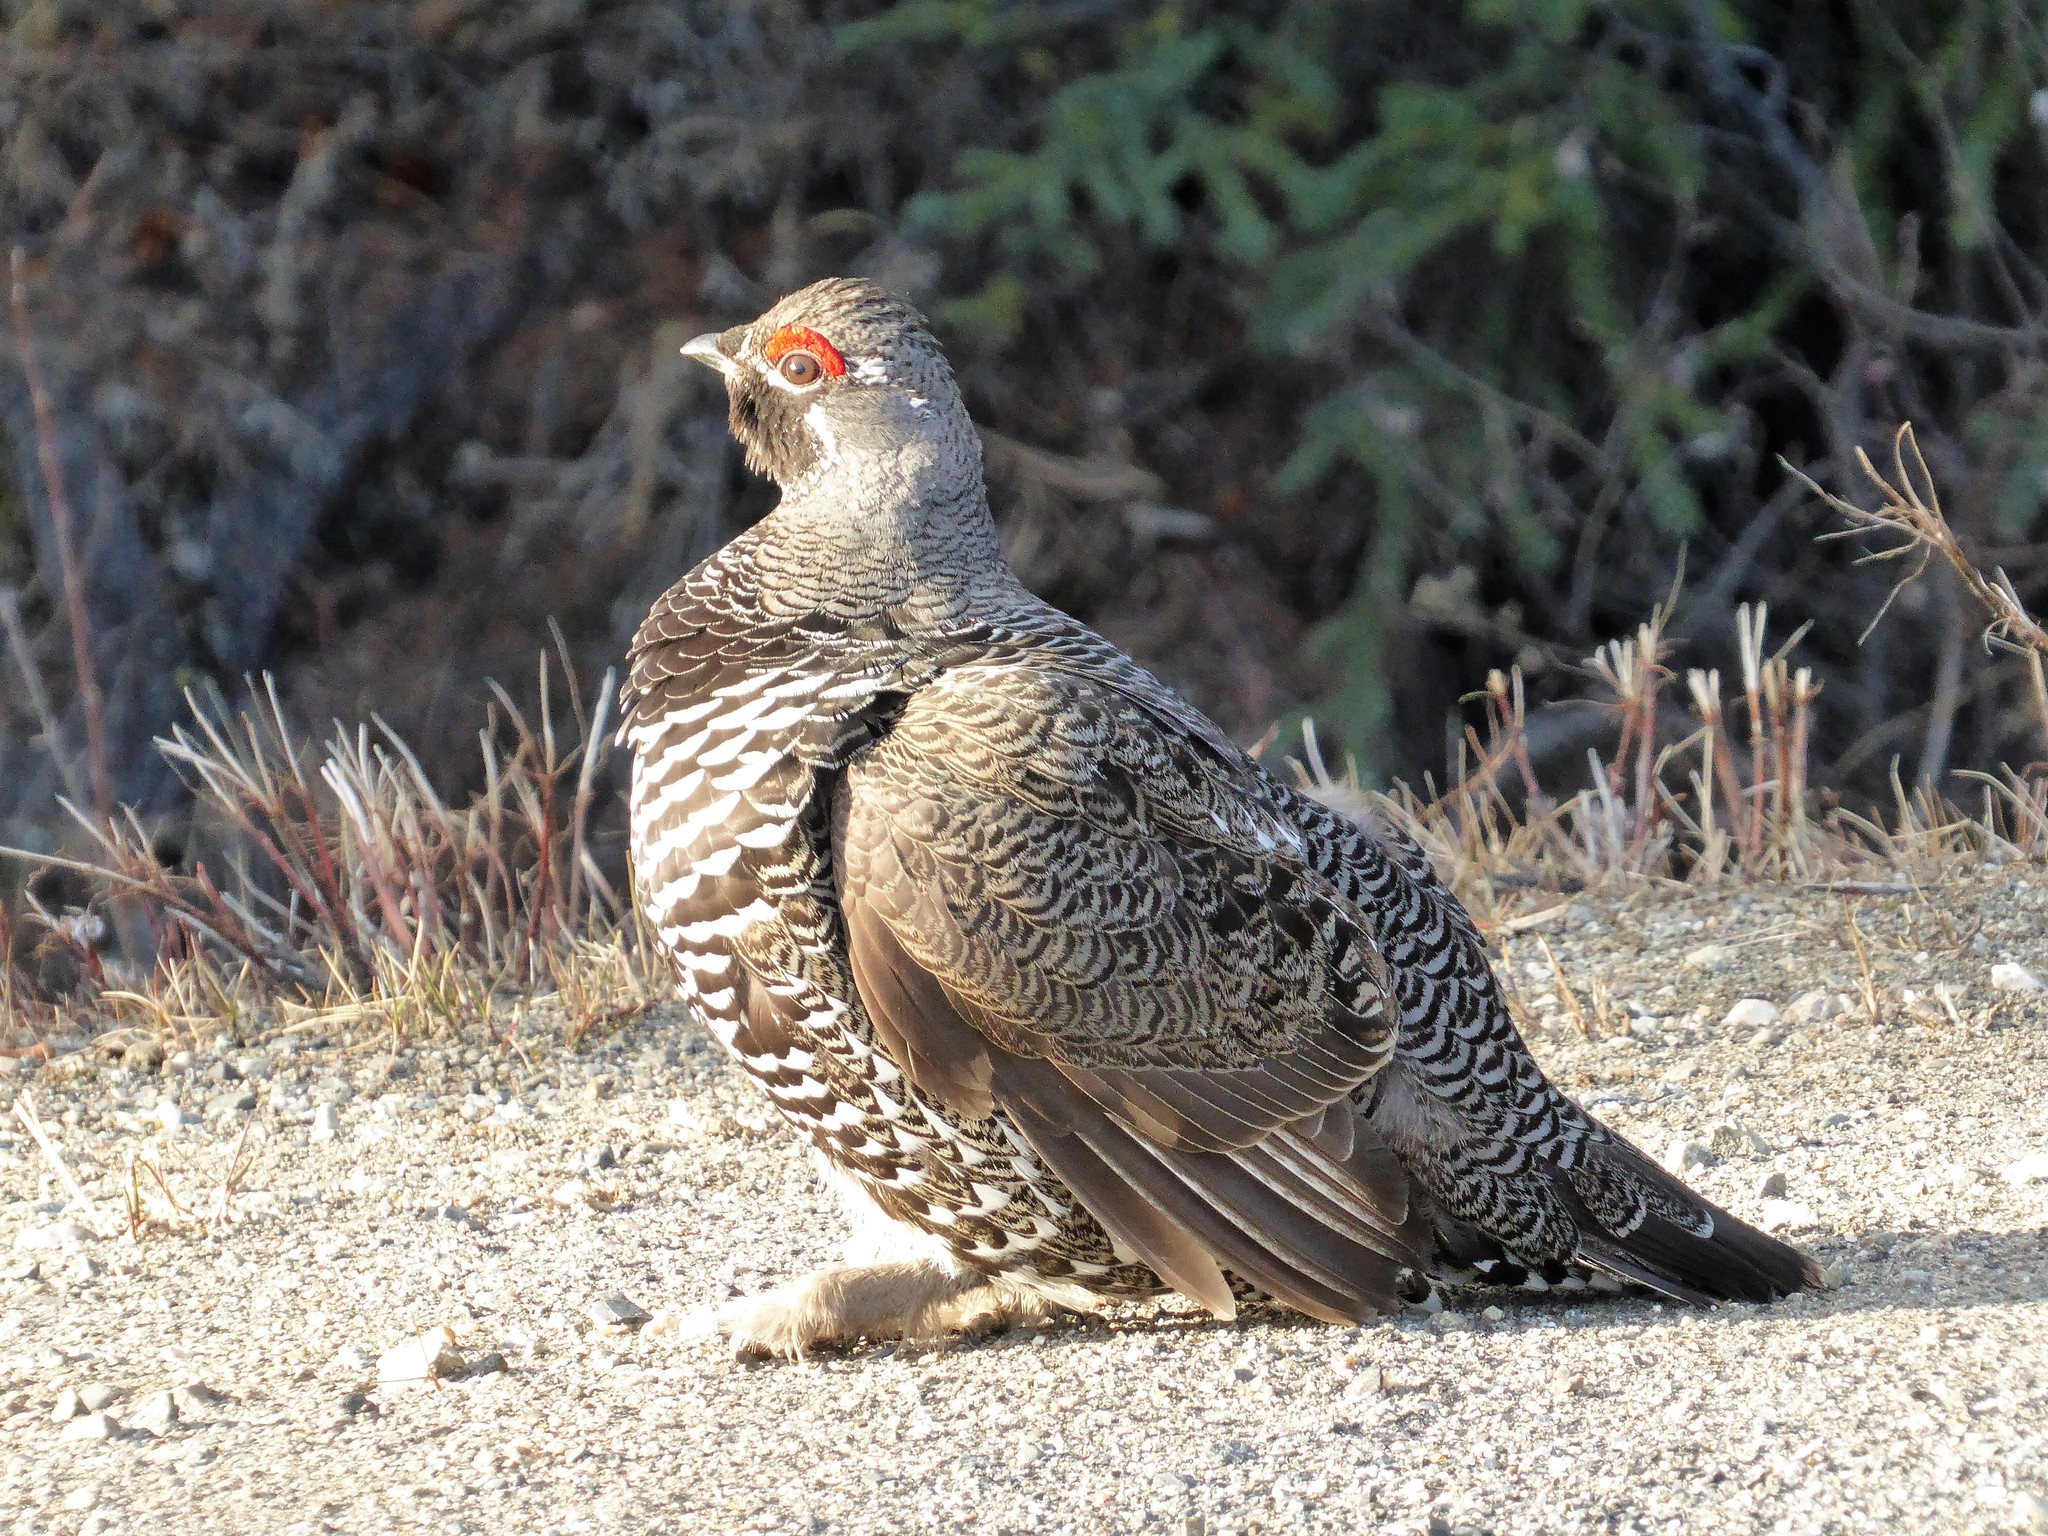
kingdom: Animalia
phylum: Chordata
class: Aves
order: Galliformes
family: Phasianidae
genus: Canachites
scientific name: Canachites canadensis
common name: Spruce grouse
